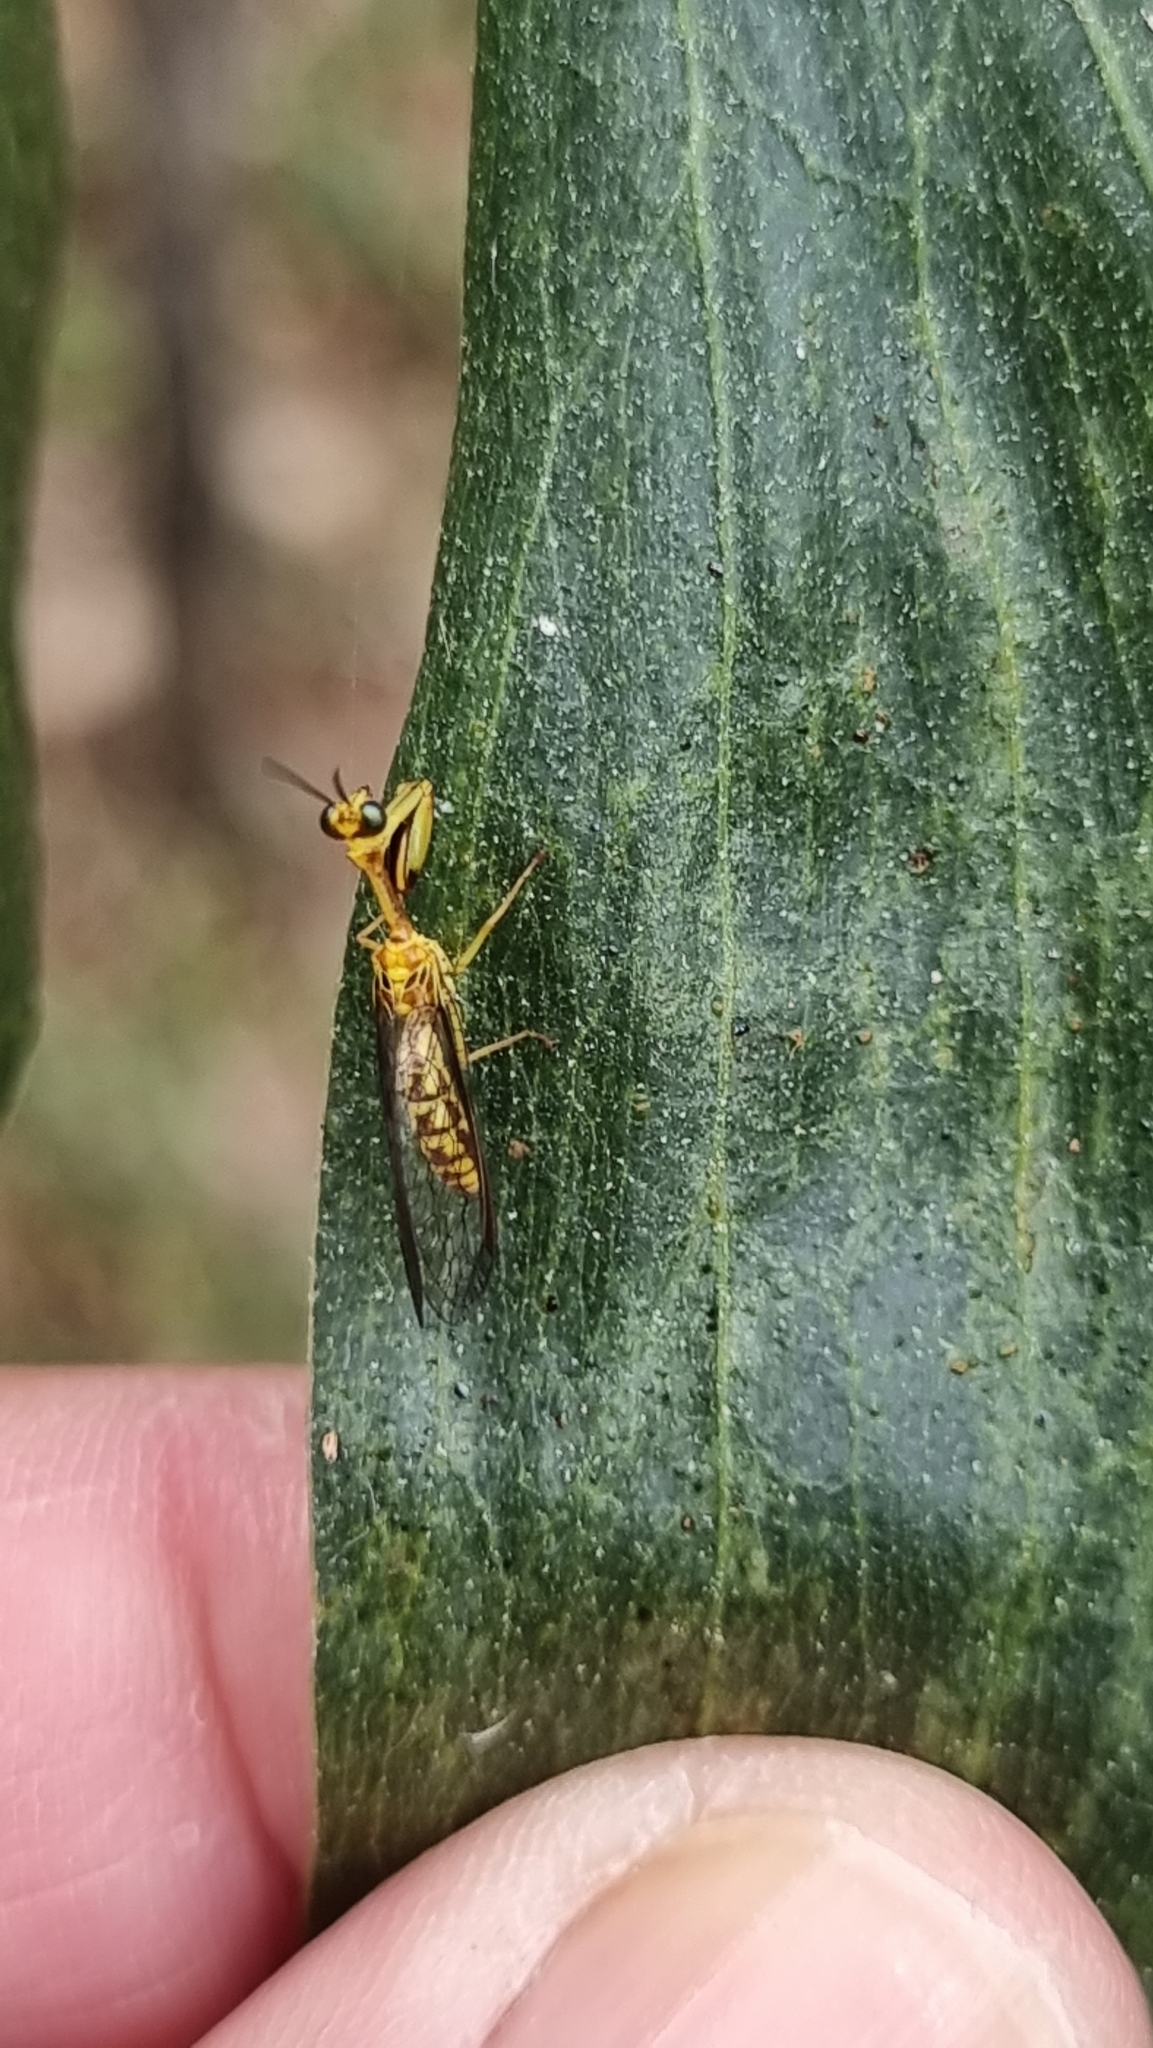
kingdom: Animalia
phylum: Arthropoda
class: Insecta
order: Neuroptera
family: Mantispidae
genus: Spaminta
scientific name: Spaminta minjerribae
